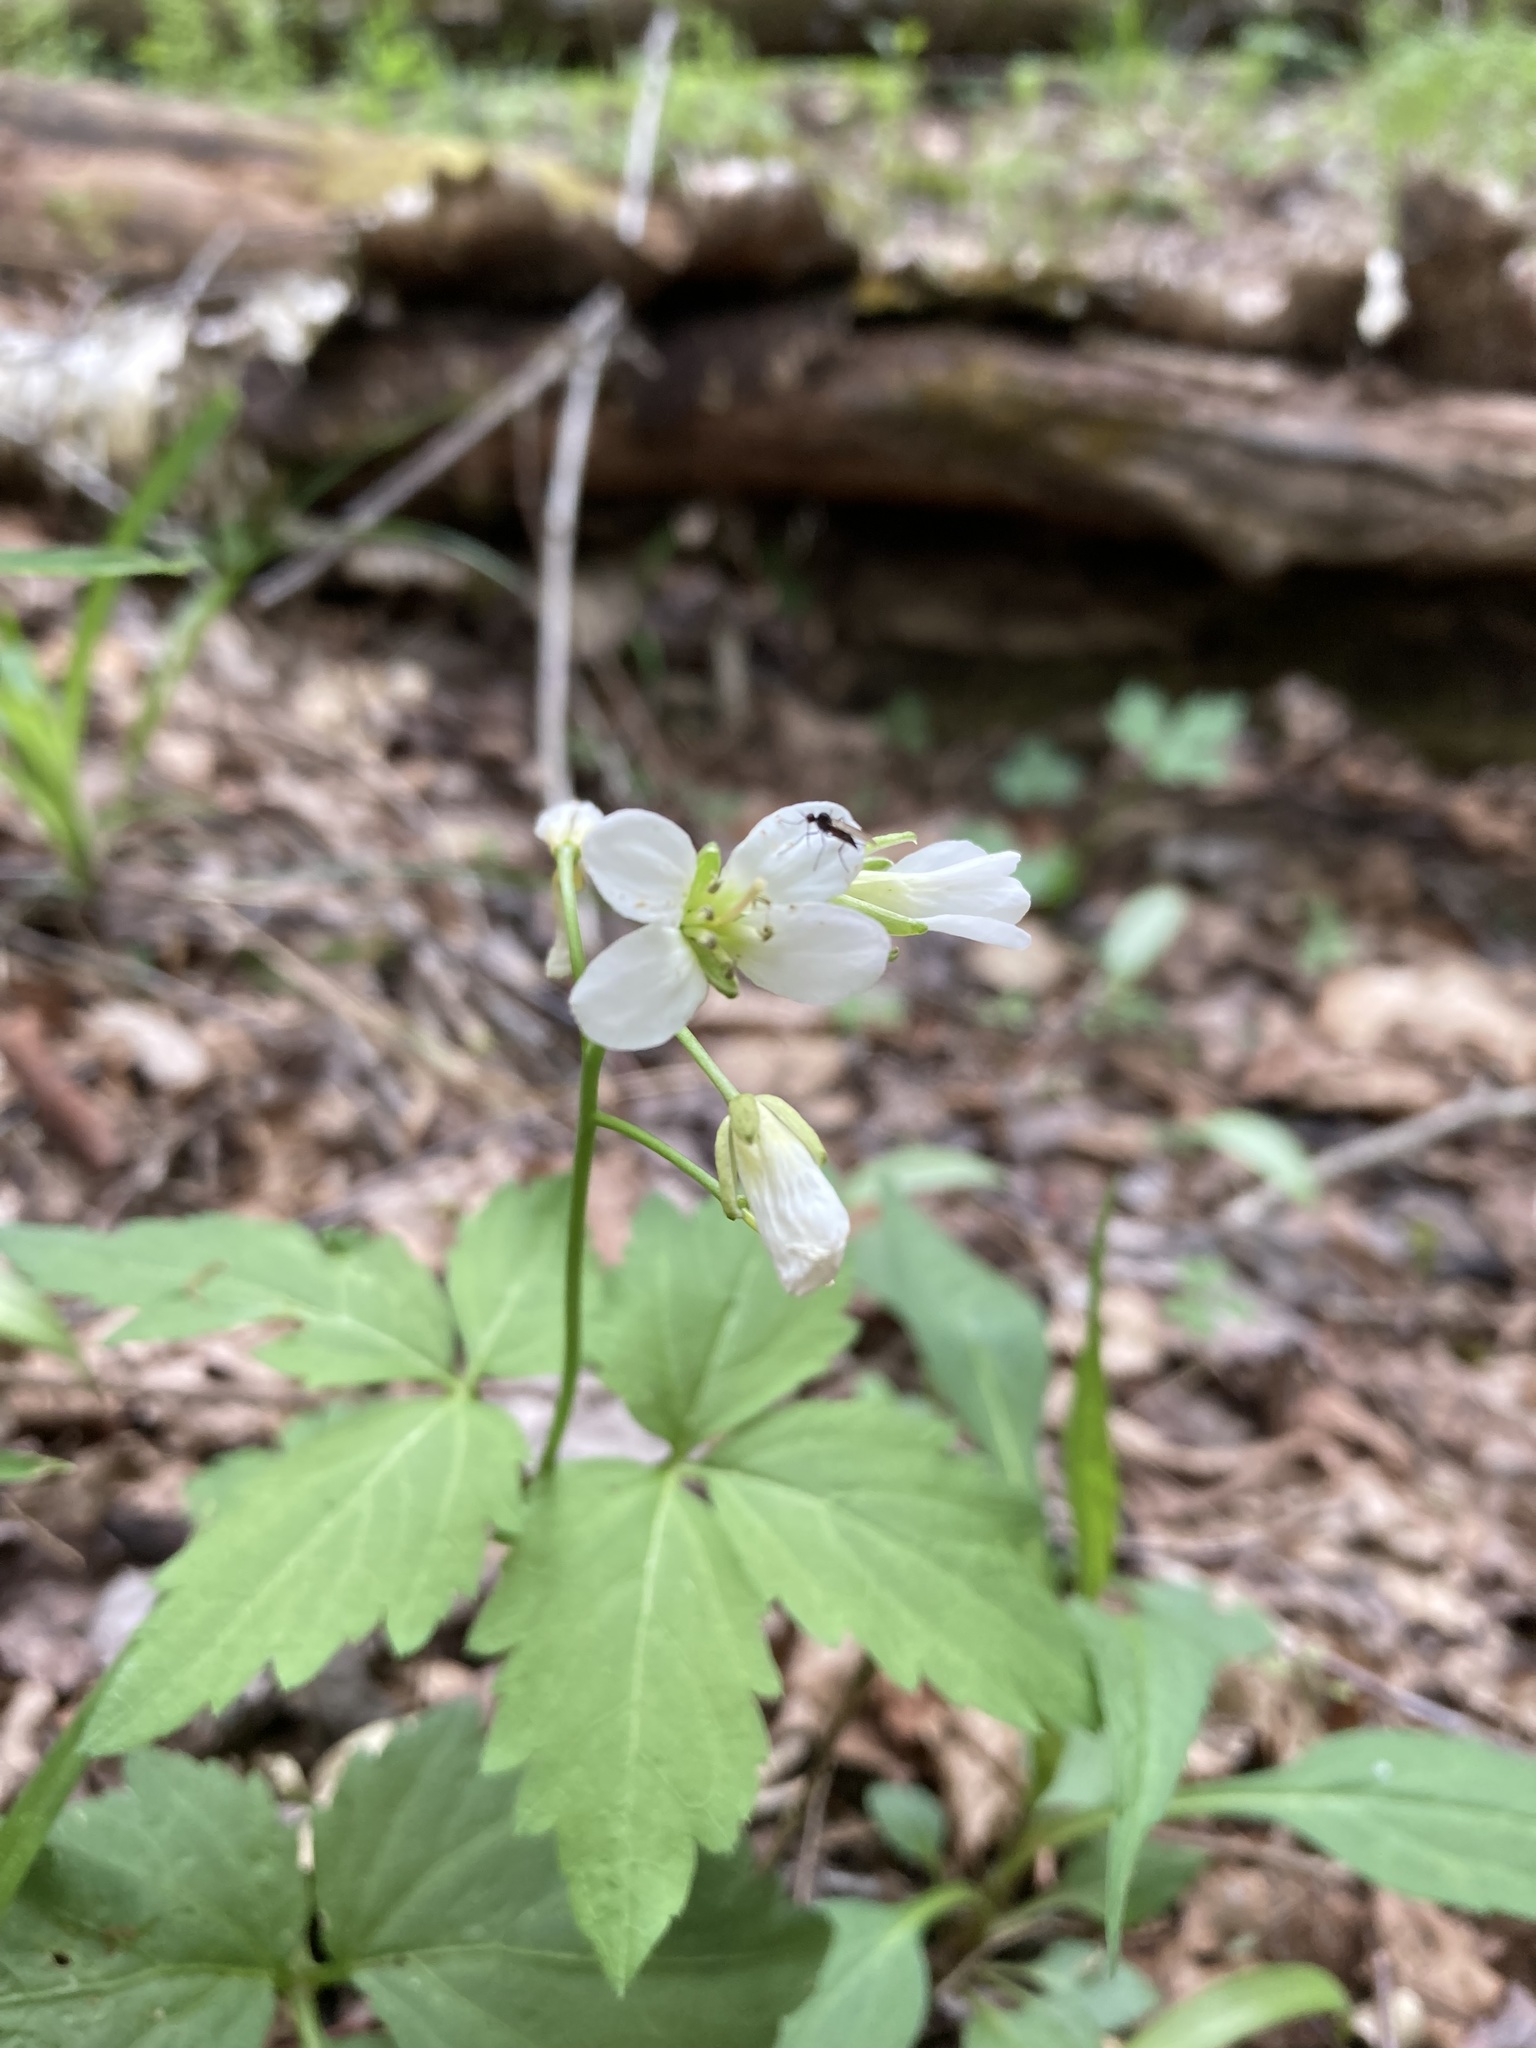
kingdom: Plantae
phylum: Tracheophyta
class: Magnoliopsida
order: Brassicales
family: Brassicaceae
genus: Cardamine
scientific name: Cardamine diphylla
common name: Broad-leaved toothwort
